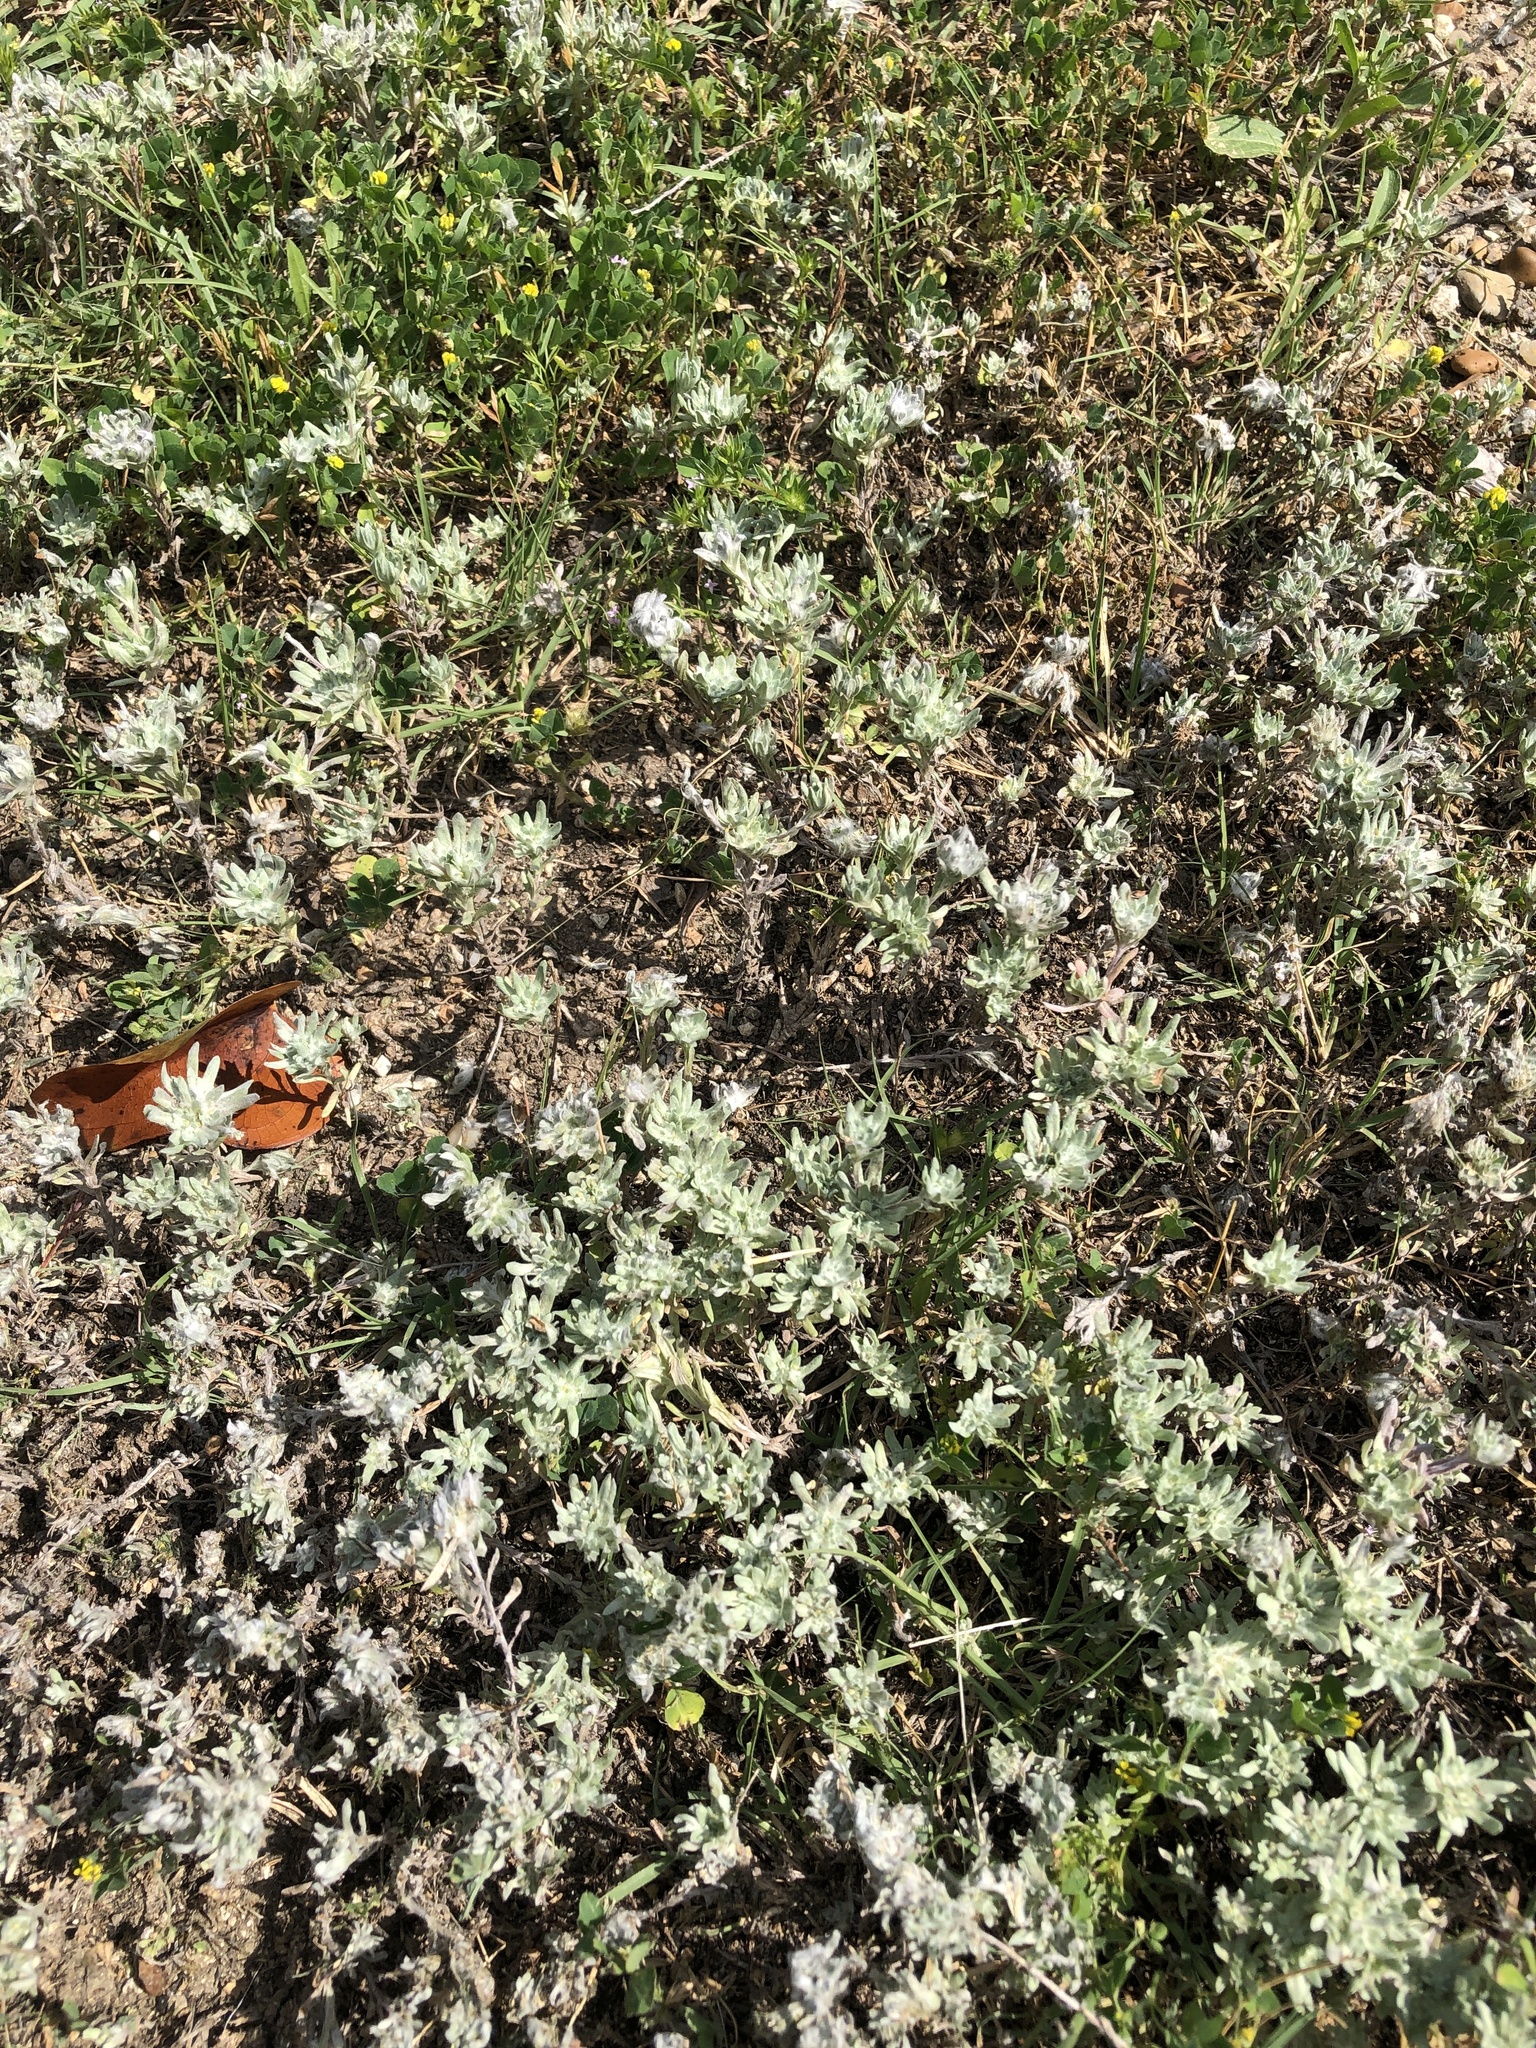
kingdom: Plantae
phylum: Tracheophyta
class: Magnoliopsida
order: Asterales
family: Asteraceae
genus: Diaperia
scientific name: Diaperia prolifera
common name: Big-head rabbit-tobacco
